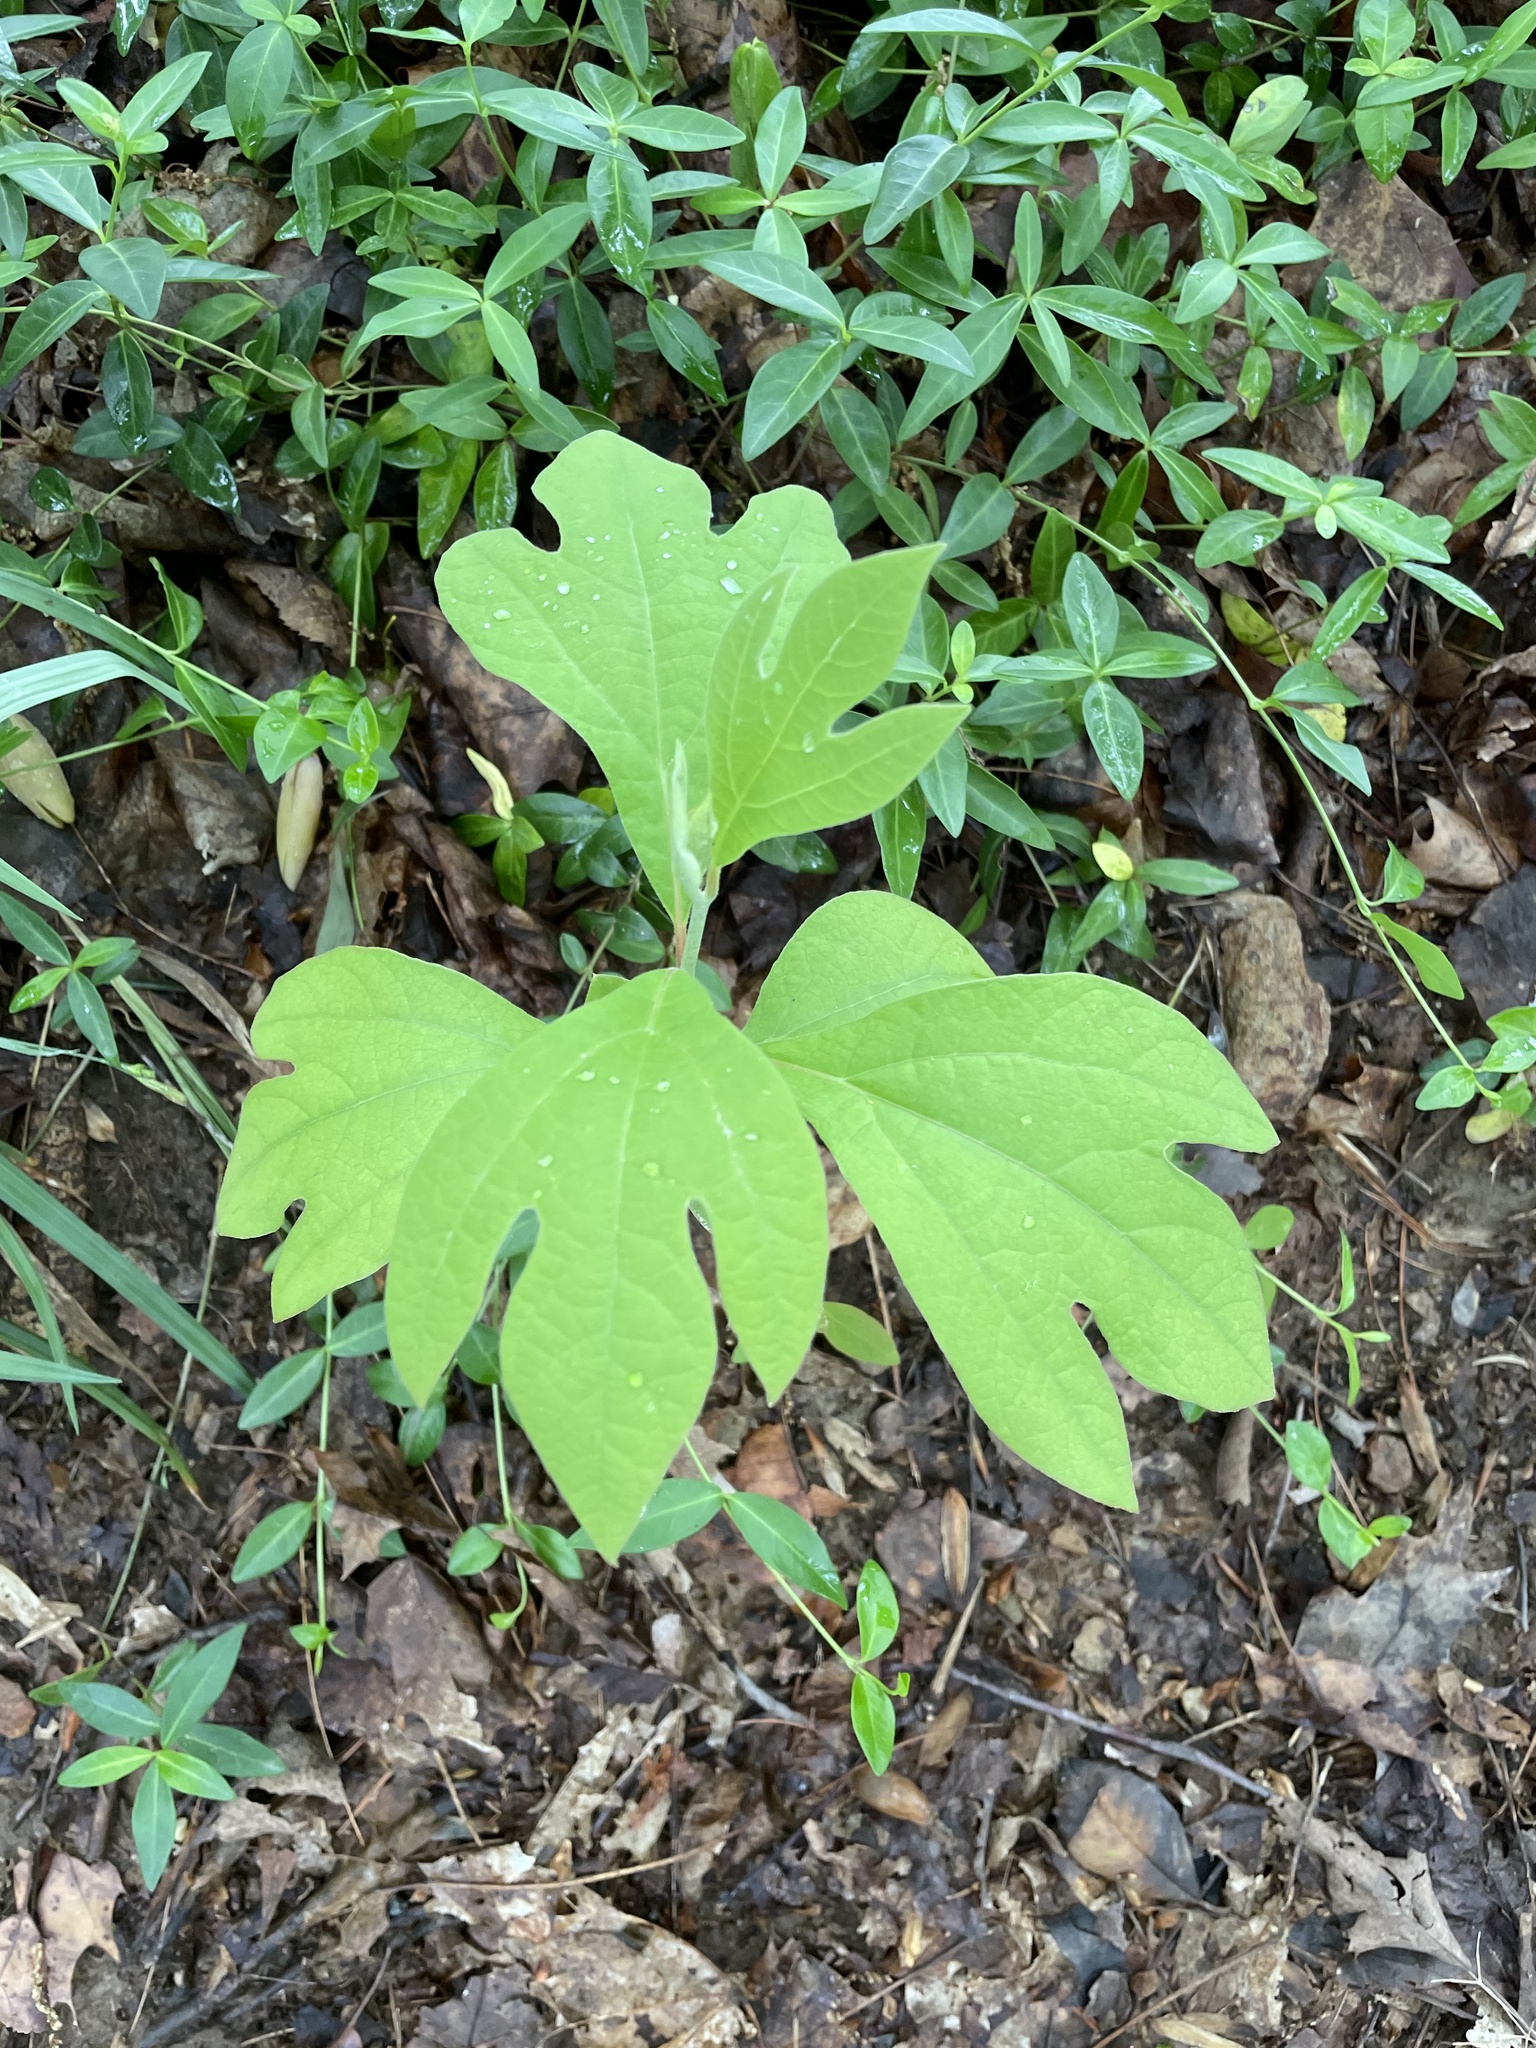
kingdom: Plantae
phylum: Tracheophyta
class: Magnoliopsida
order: Laurales
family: Lauraceae
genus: Sassafras
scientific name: Sassafras albidum
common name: Sassafras
